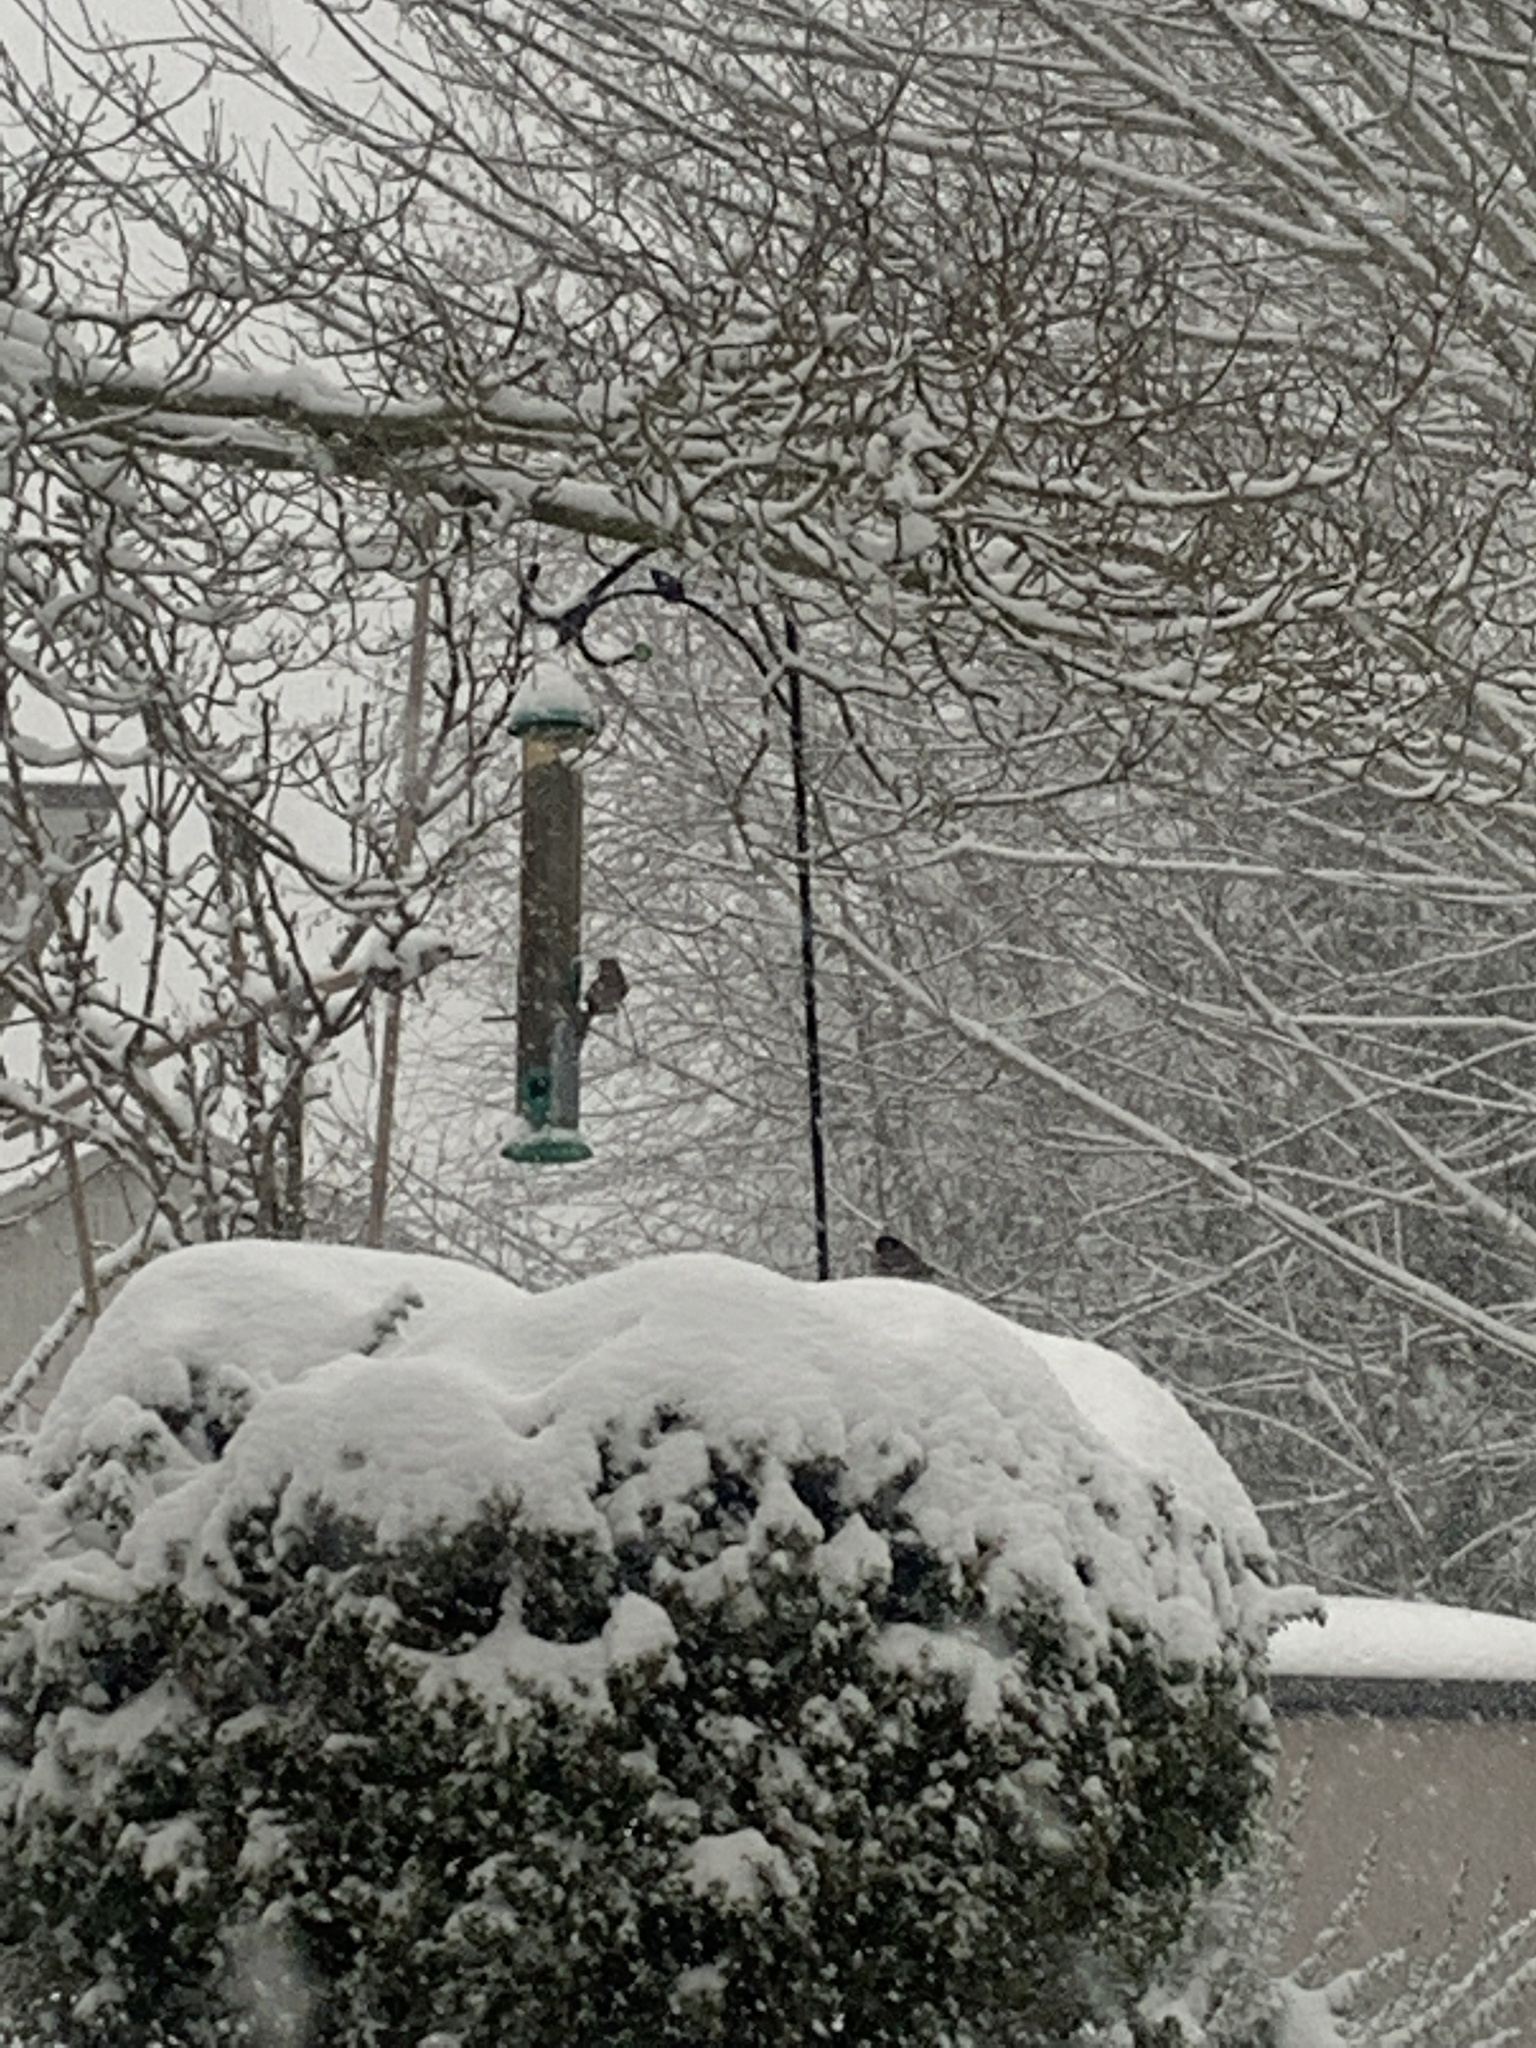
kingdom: Animalia
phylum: Chordata
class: Aves
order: Passeriformes
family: Fringillidae
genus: Haemorhous
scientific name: Haemorhous mexicanus
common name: House finch
